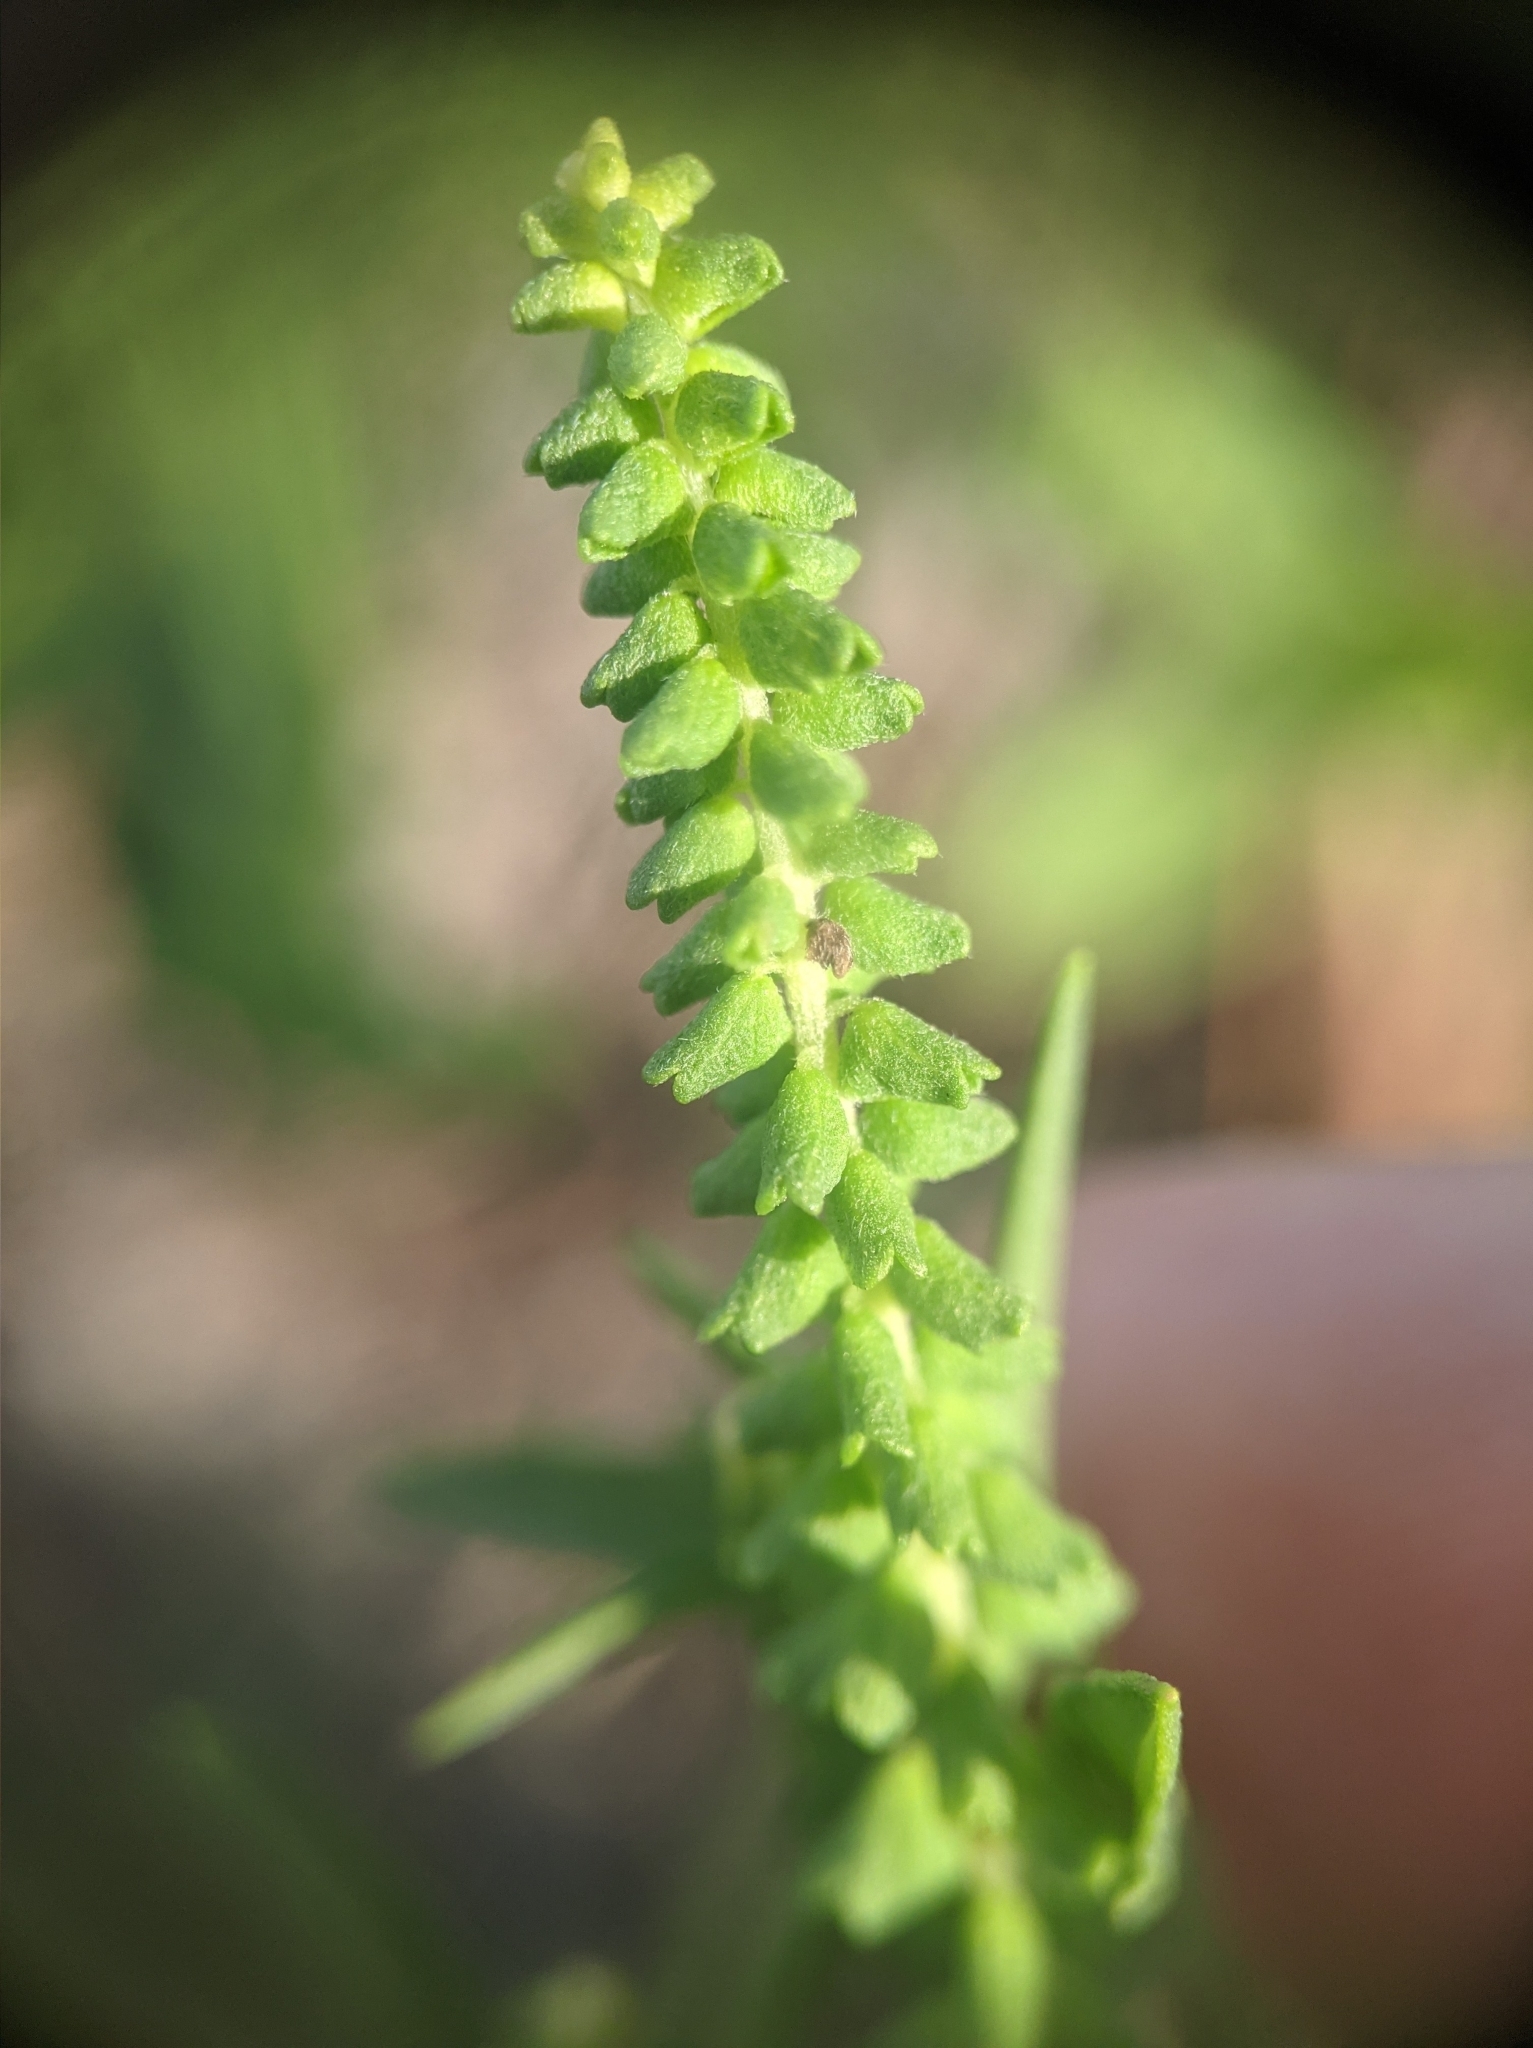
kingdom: Plantae
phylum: Tracheophyta
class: Magnoliopsida
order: Asterales
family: Asteraceae
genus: Ambrosia
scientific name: Ambrosia artemisiifolia
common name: Annual ragweed
